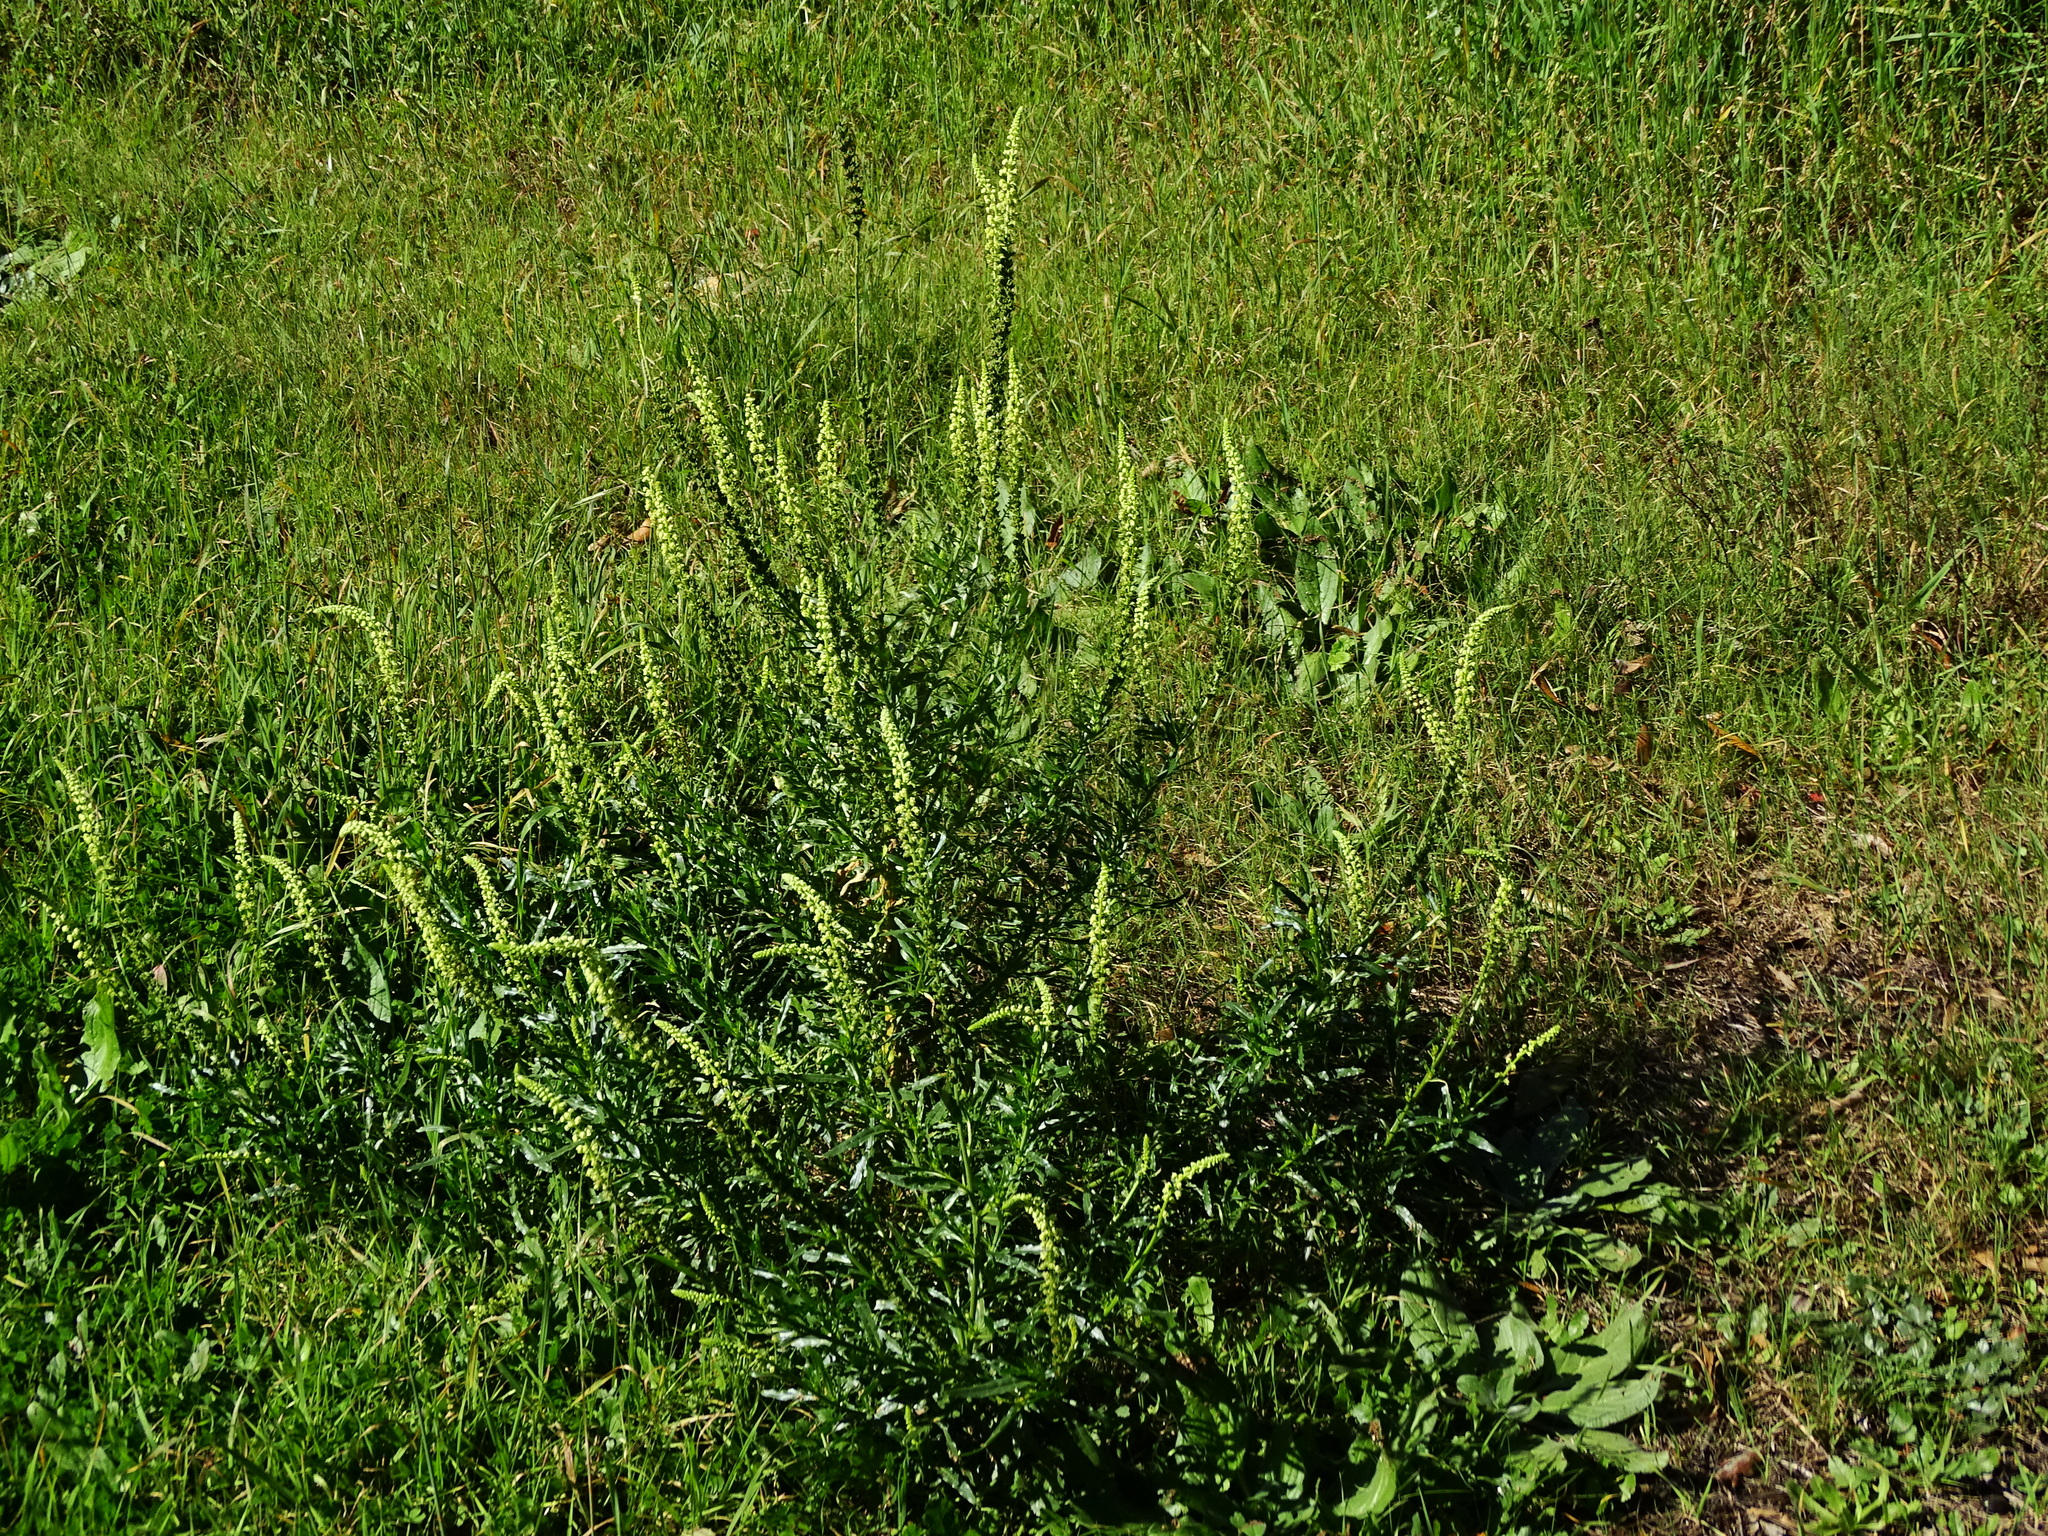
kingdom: Plantae
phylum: Tracheophyta
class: Magnoliopsida
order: Brassicales
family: Resedaceae
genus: Reseda
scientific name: Reseda luteola
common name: Weld
